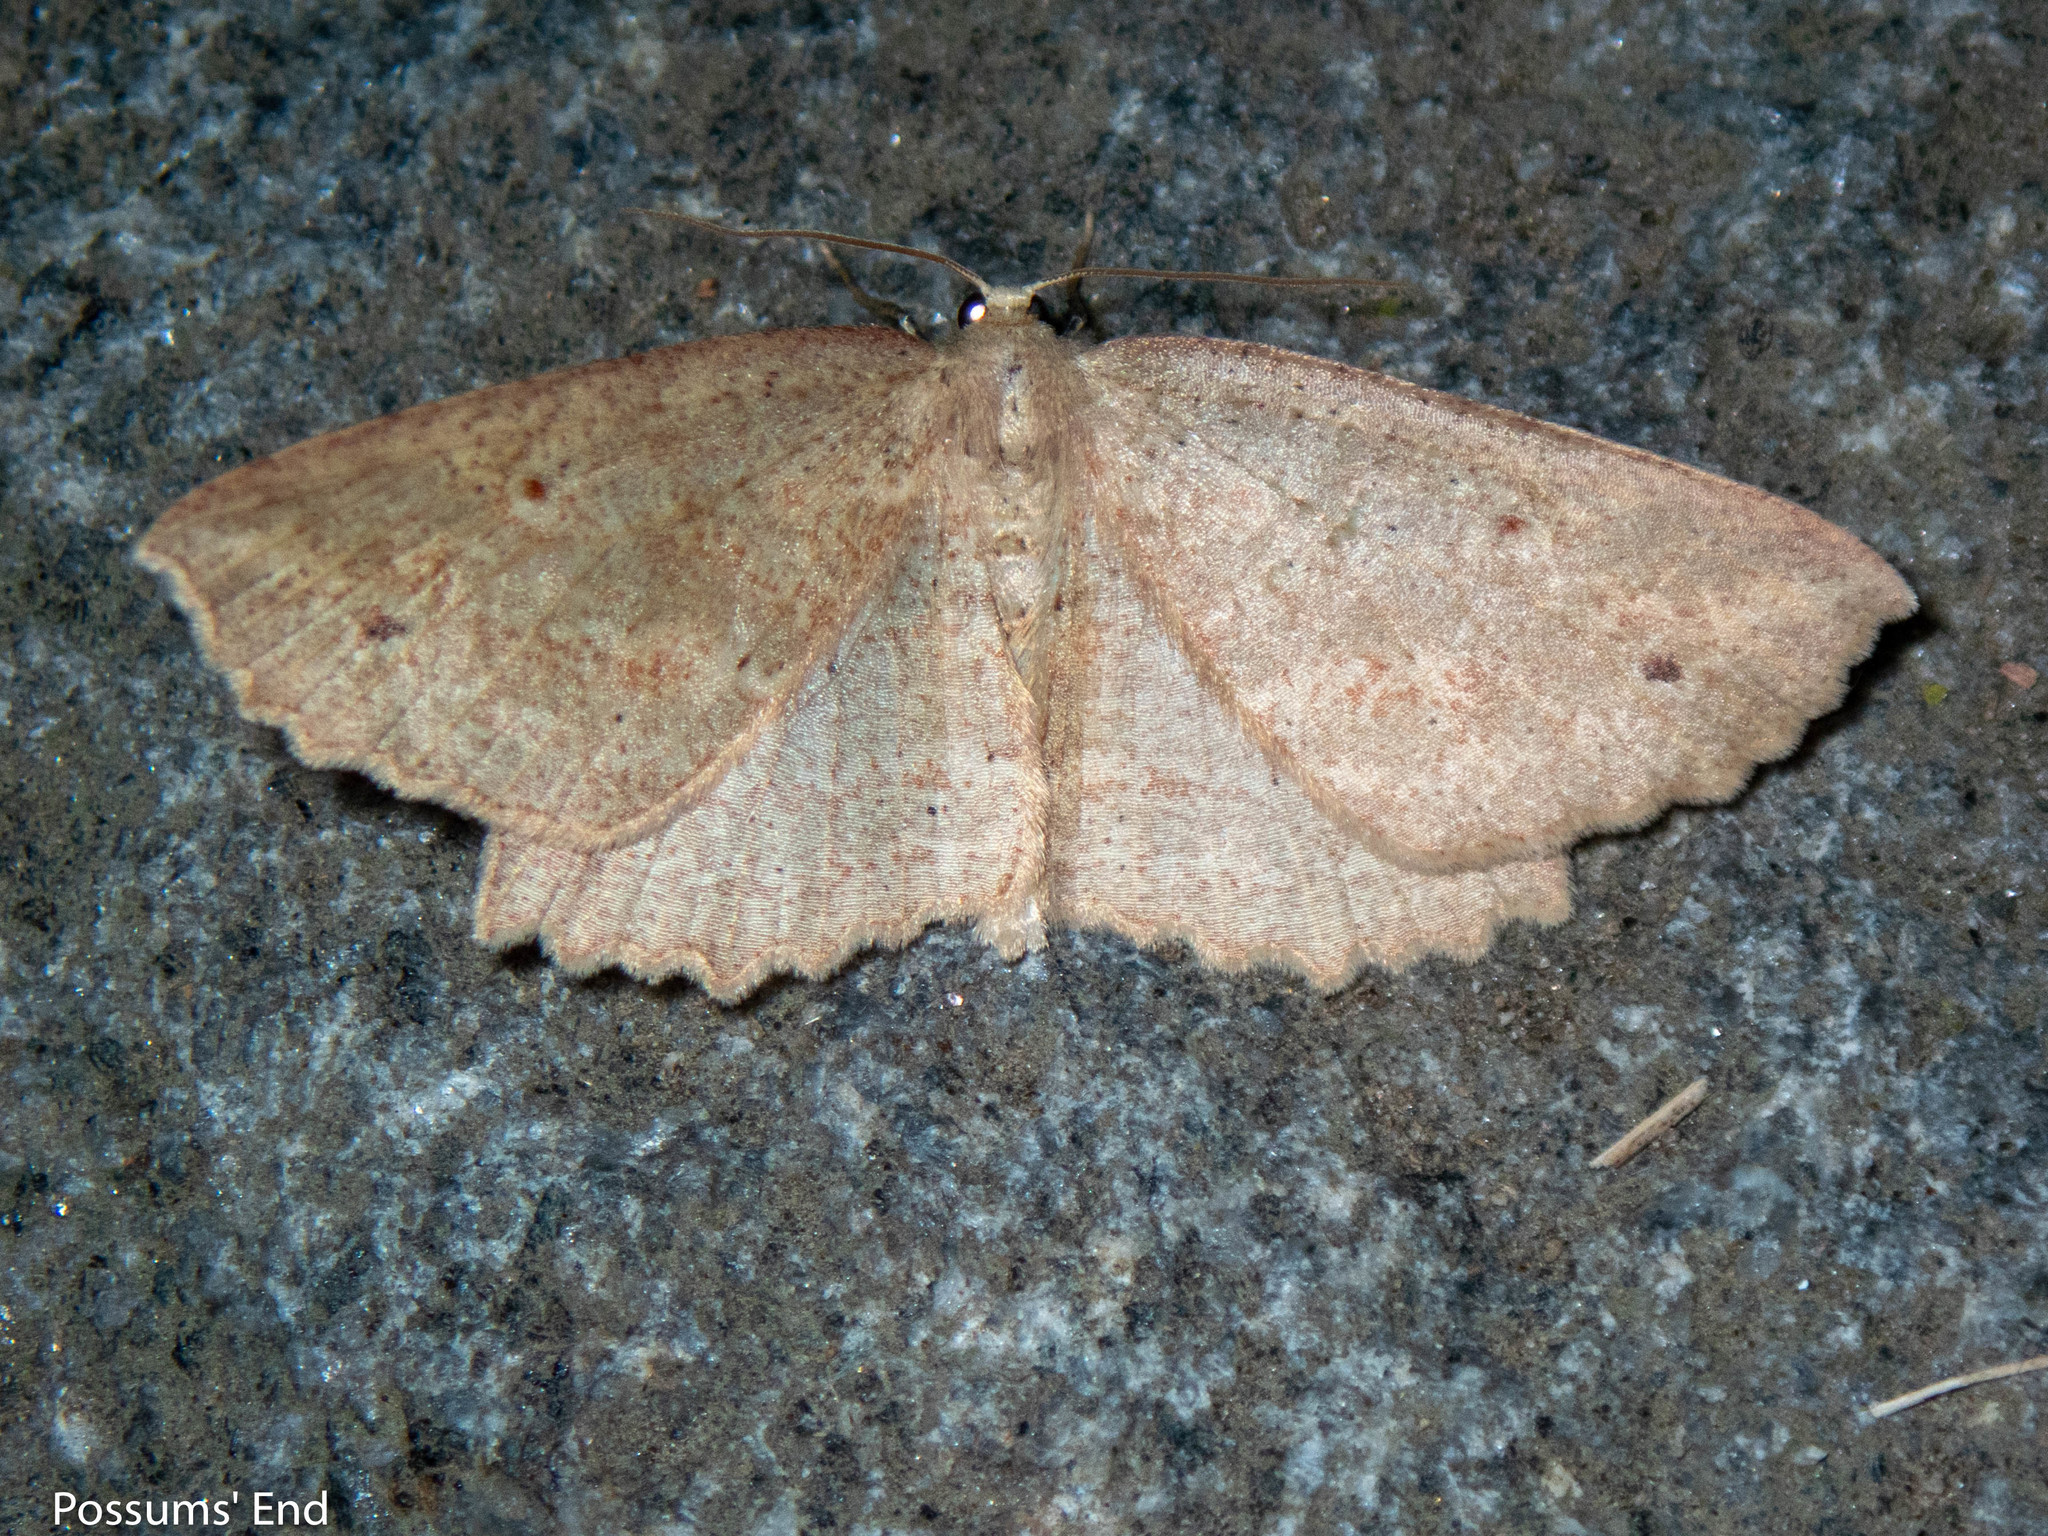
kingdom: Animalia
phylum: Arthropoda
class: Insecta
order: Lepidoptera
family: Geometridae
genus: Xyridacma
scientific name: Xyridacma veronicae
